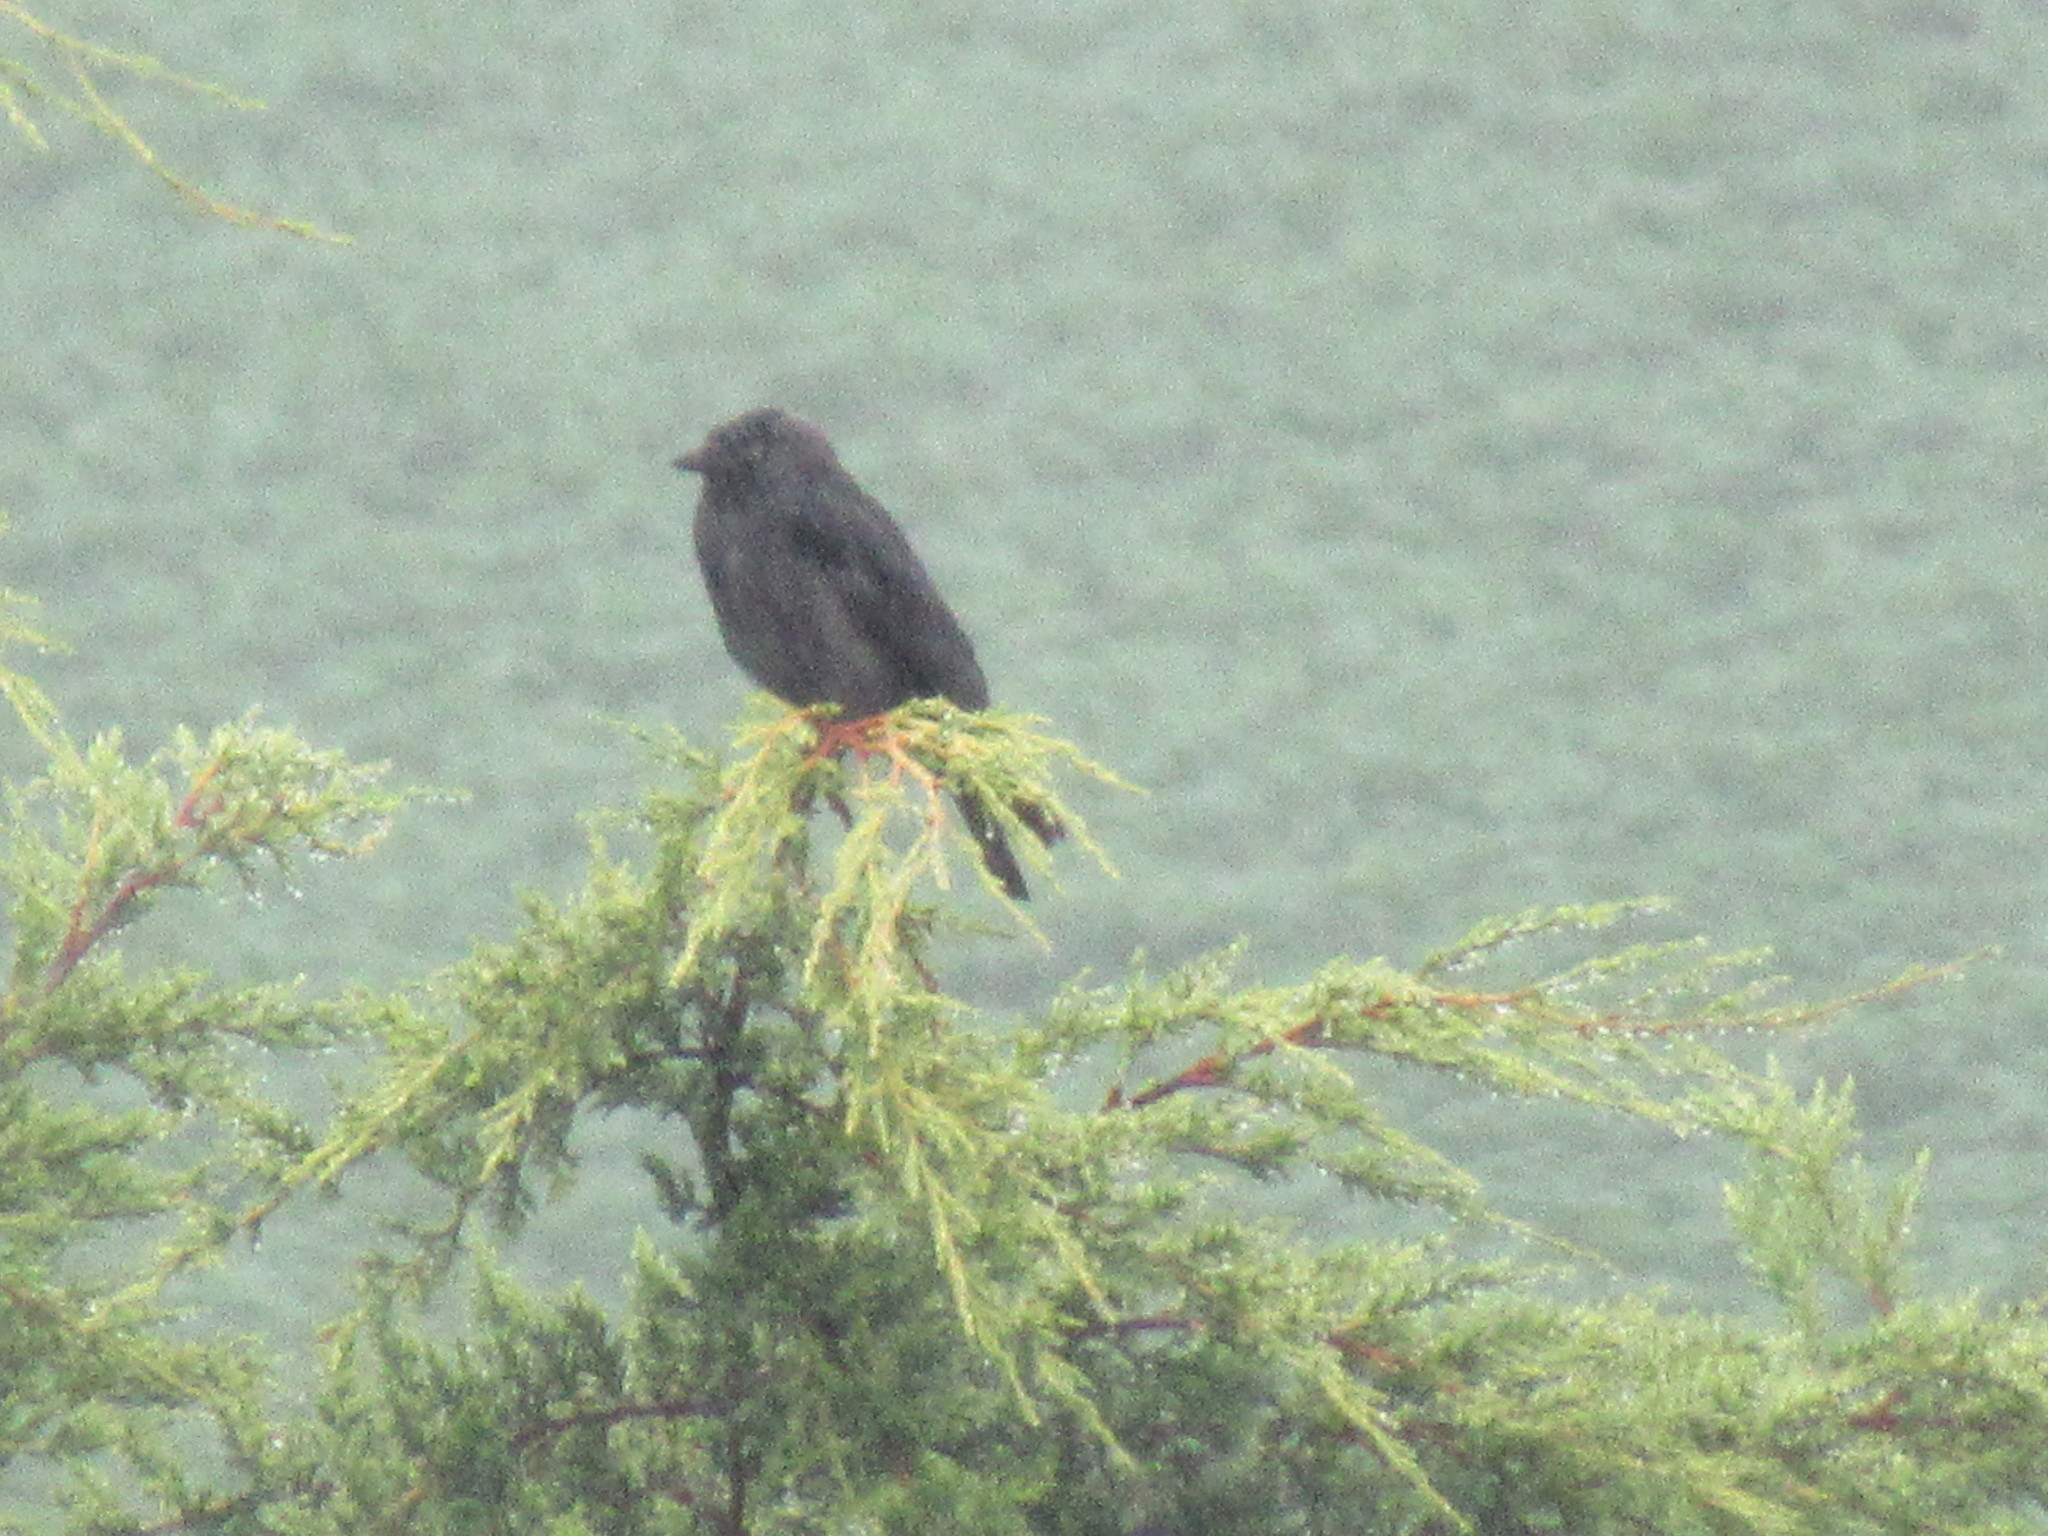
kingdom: Animalia
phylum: Chordata
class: Aves
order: Passeriformes
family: Corvidae
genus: Coloeus
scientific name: Coloeus monedula
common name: Western jackdaw
